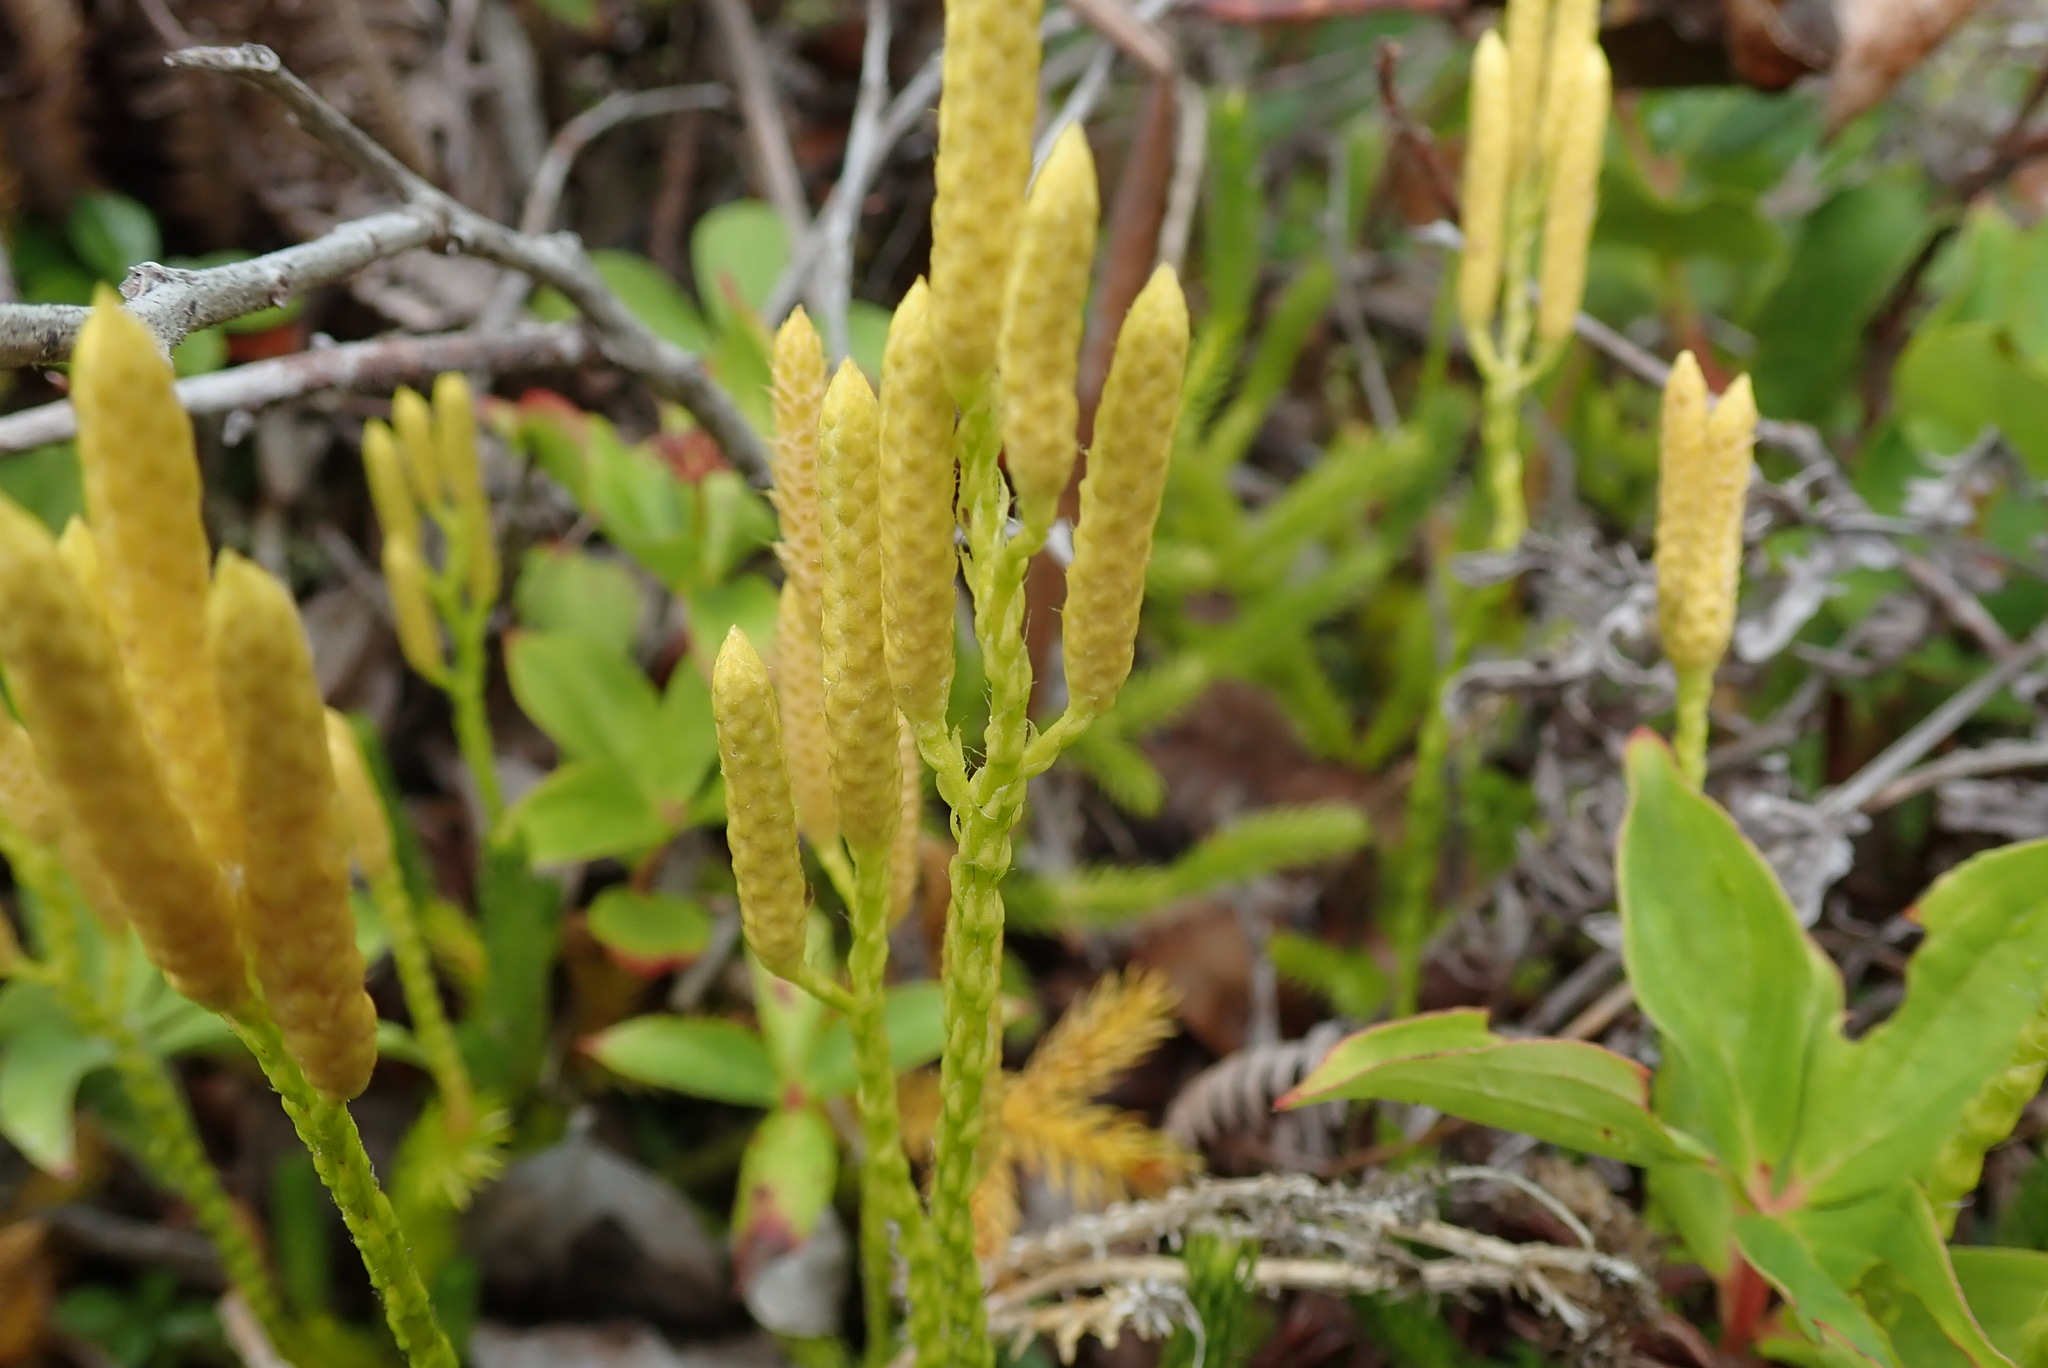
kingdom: Plantae
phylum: Tracheophyta
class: Lycopodiopsida
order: Lycopodiales
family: Lycopodiaceae
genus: Lycopodium
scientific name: Lycopodium clavatum
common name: Stag's-horn clubmoss
